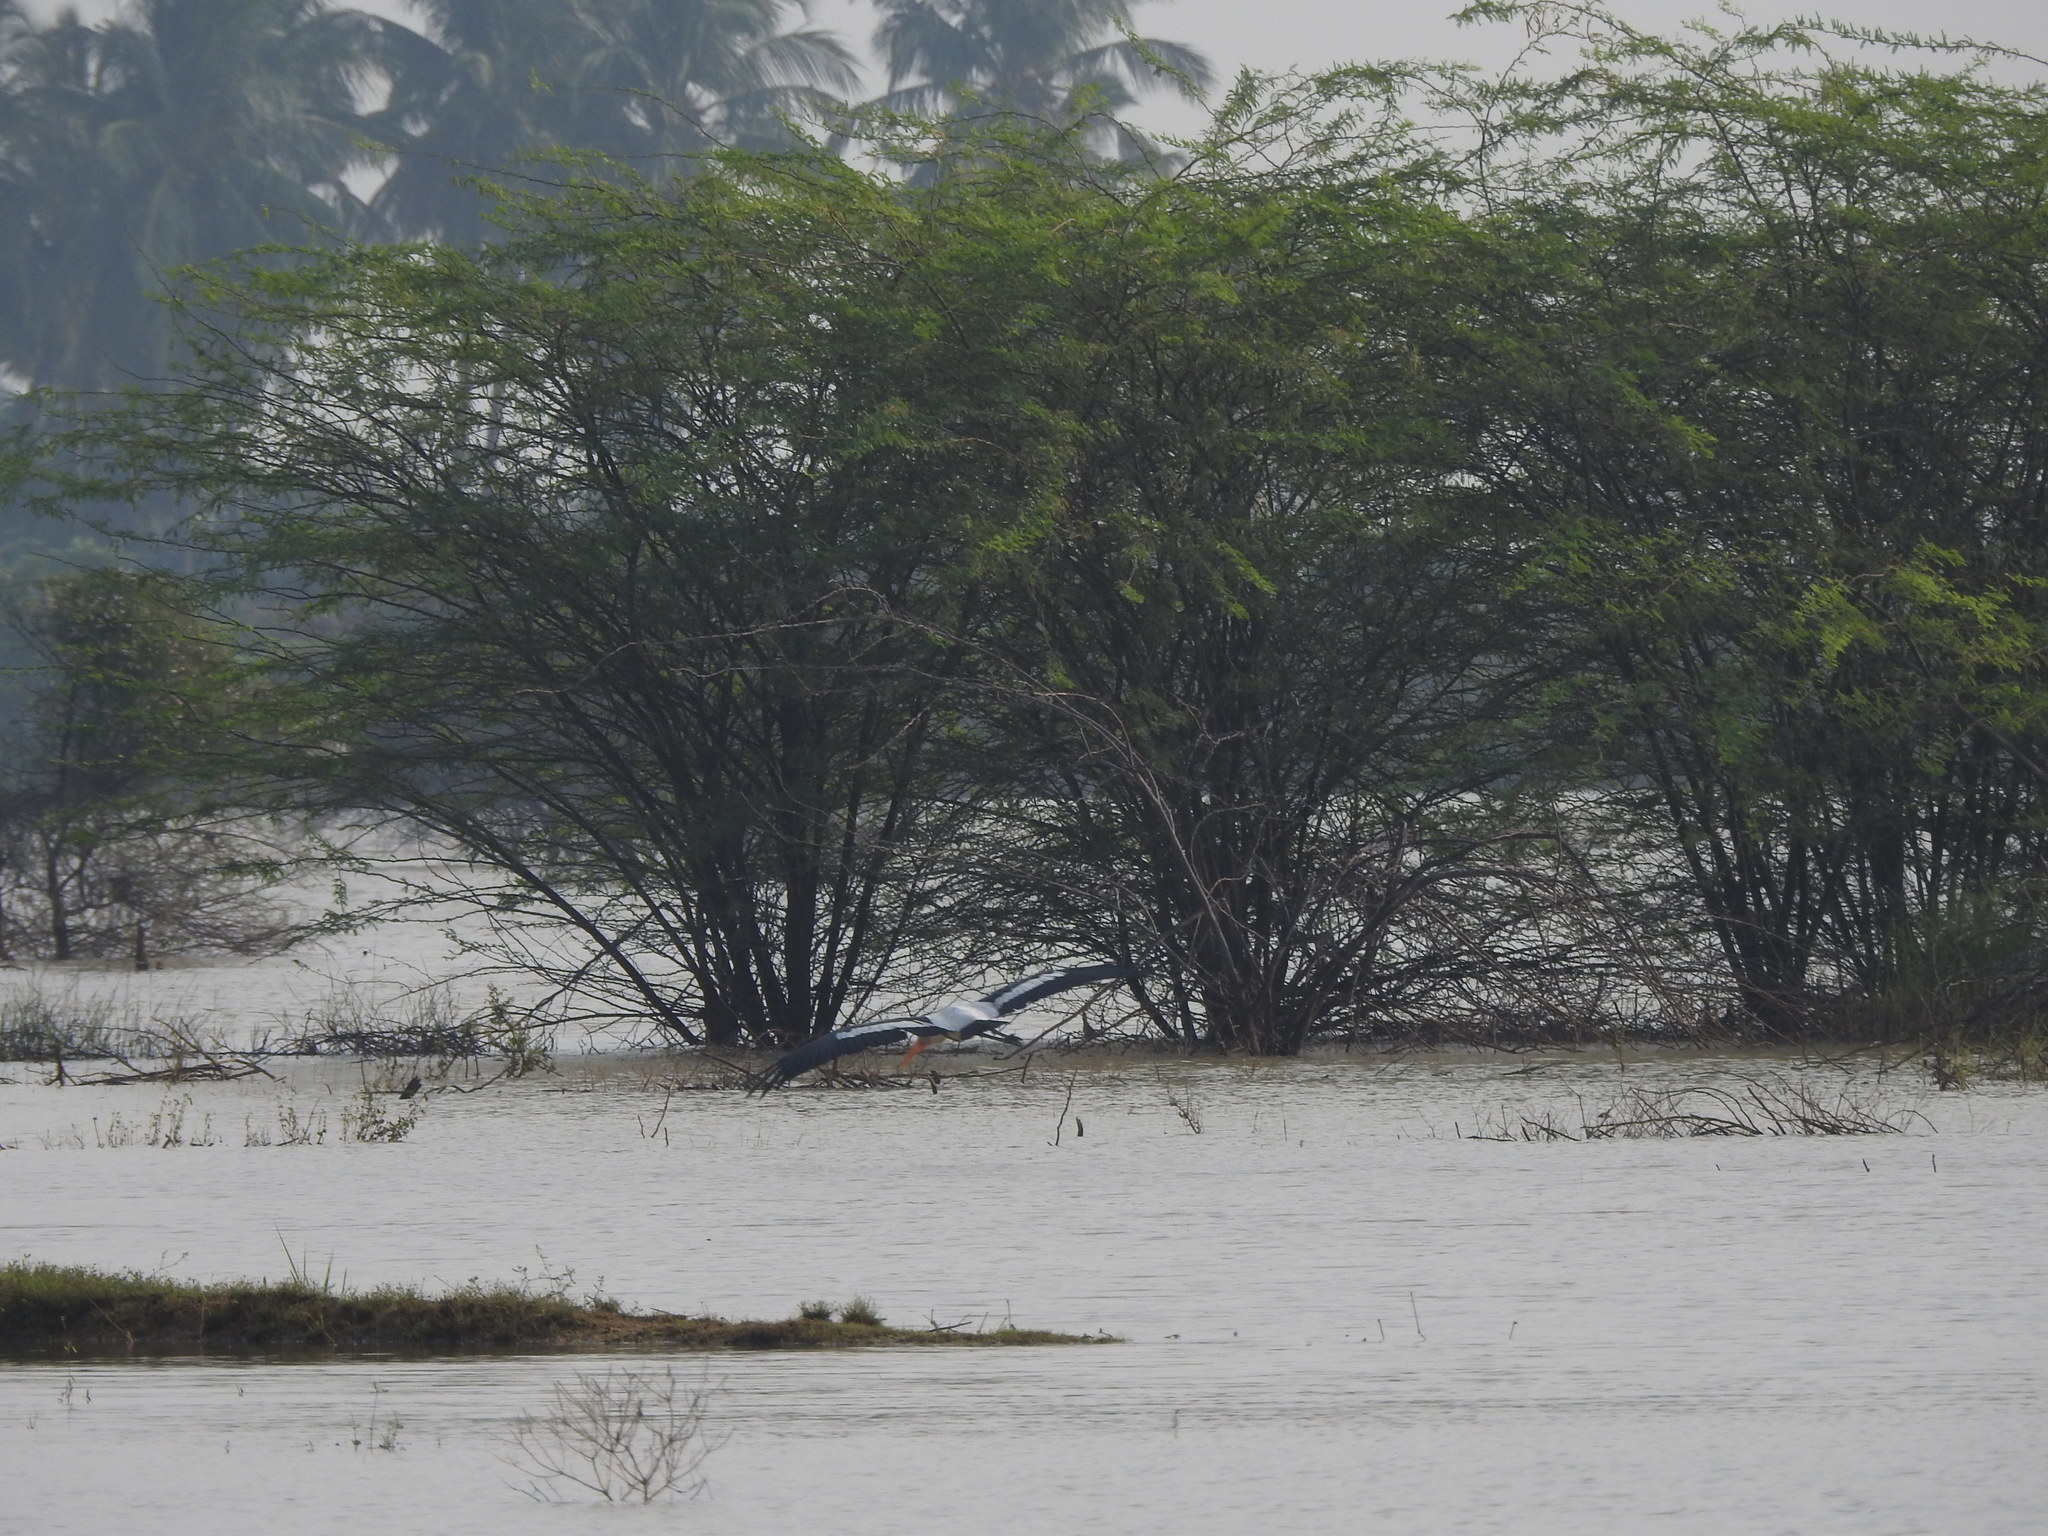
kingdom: Animalia
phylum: Chordata
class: Aves
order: Ciconiiformes
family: Ciconiidae
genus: Mycteria
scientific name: Mycteria leucocephala
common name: Painted stork
